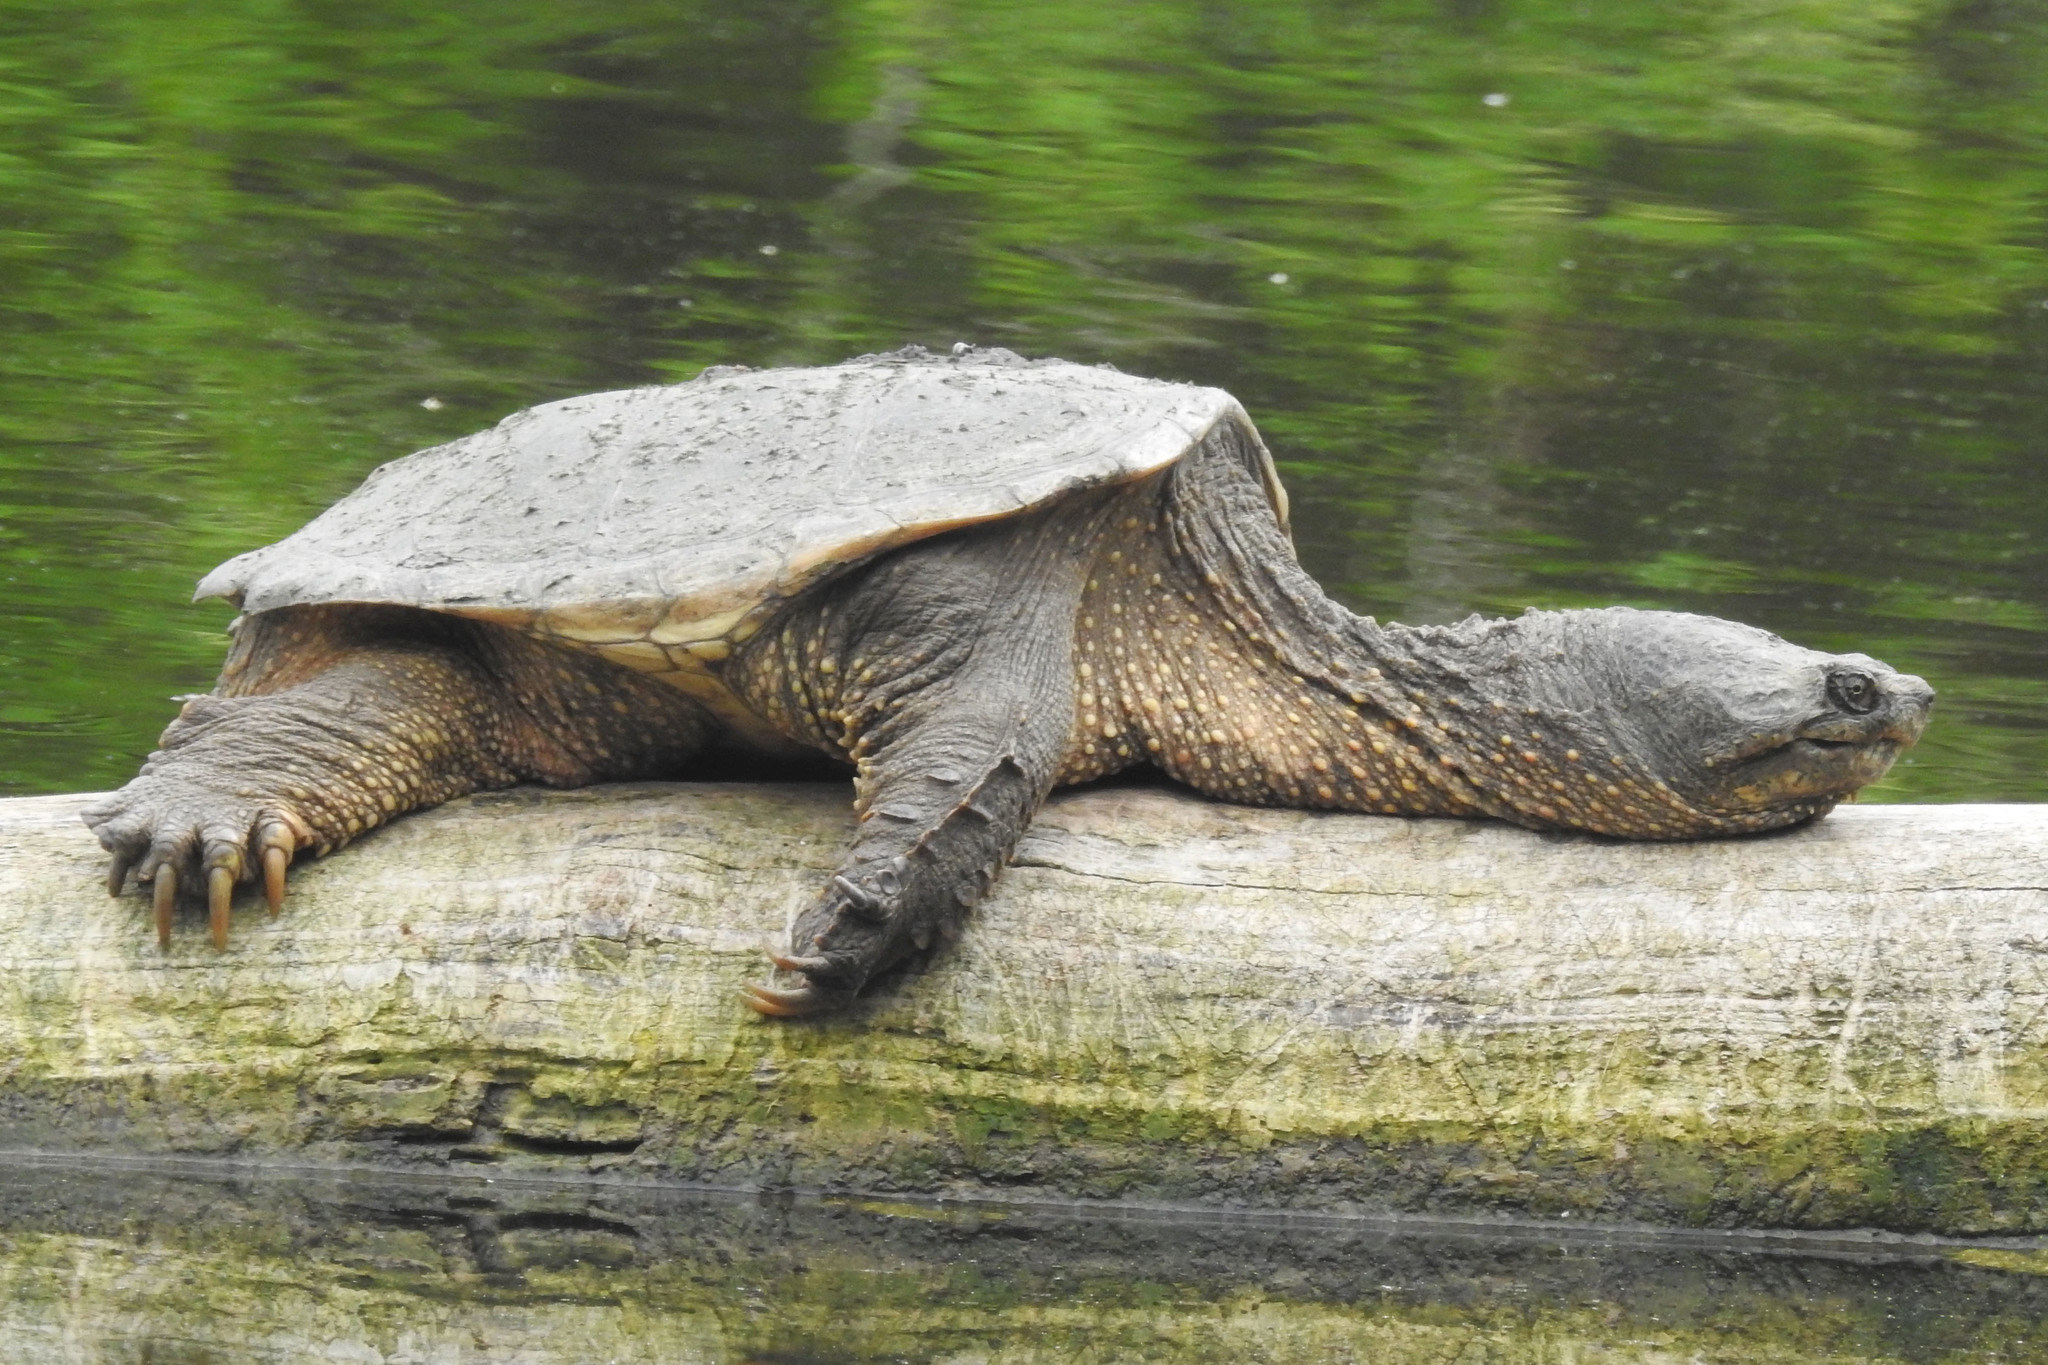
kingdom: Animalia
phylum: Chordata
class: Testudines
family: Chelydridae
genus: Chelydra
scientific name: Chelydra serpentina
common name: Common snapping turtle
